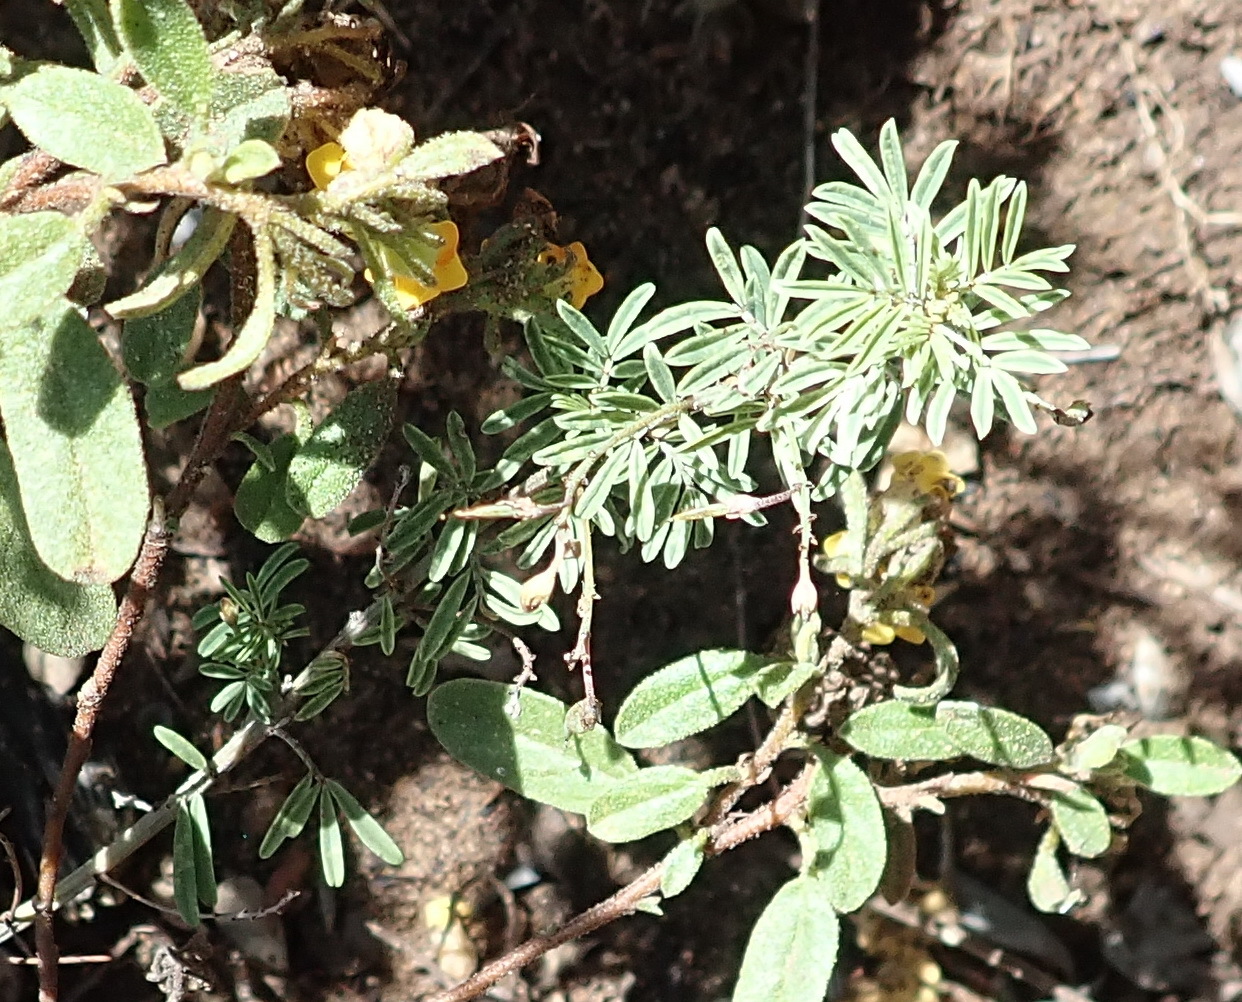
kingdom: Plantae
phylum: Tracheophyta
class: Magnoliopsida
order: Fabales
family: Fabaceae
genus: Indigofera
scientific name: Indigofera verrucosa
